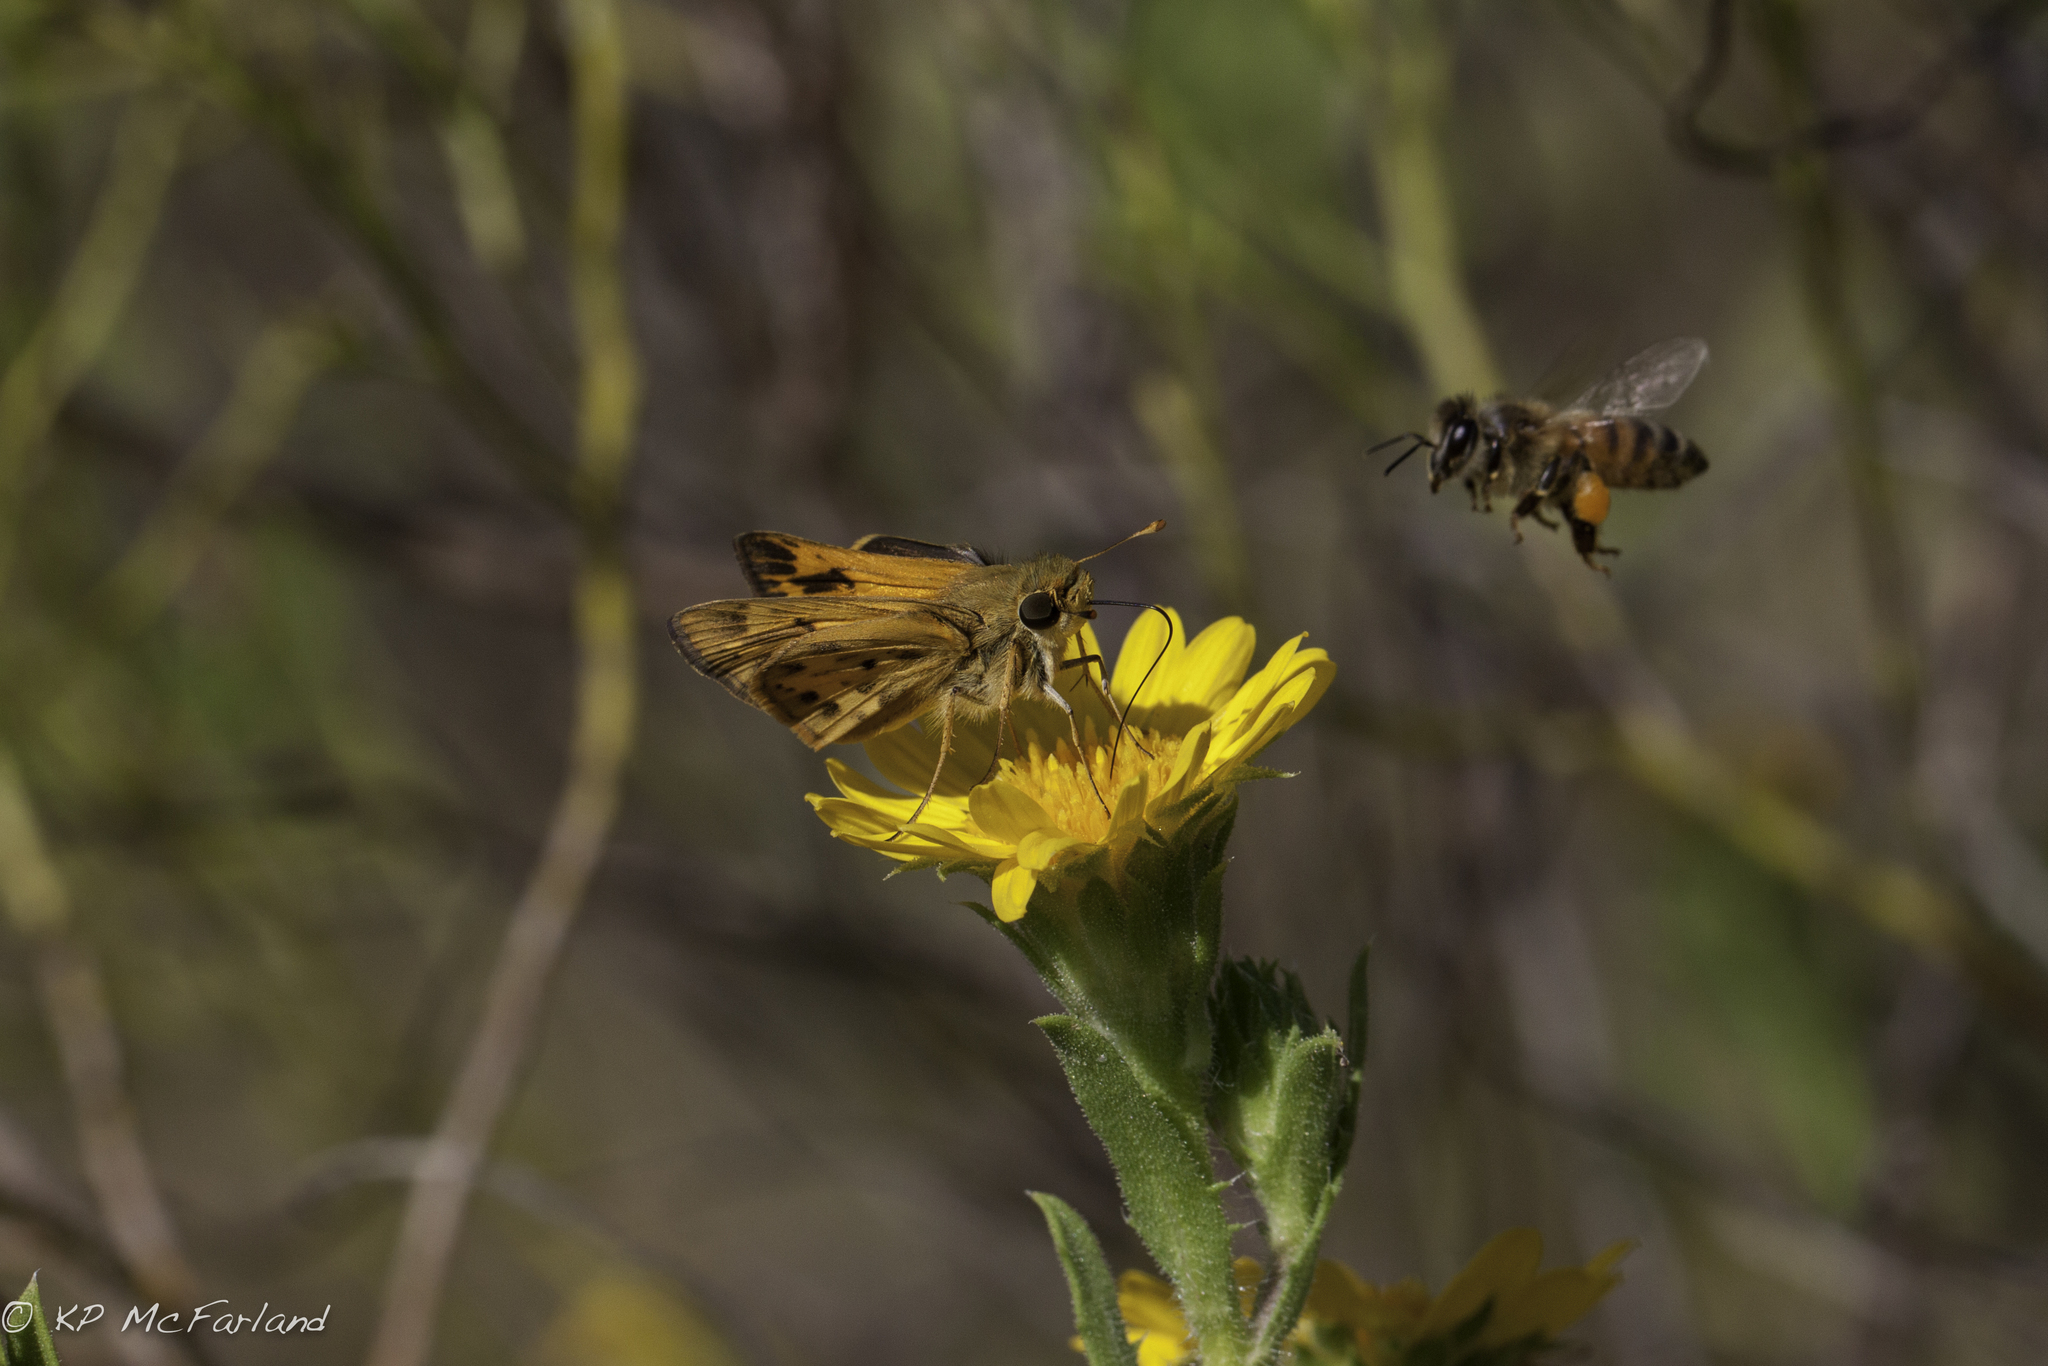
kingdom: Animalia
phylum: Arthropoda
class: Insecta
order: Lepidoptera
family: Hesperiidae
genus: Hylephila
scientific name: Hylephila phyleus
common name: Fiery skipper
